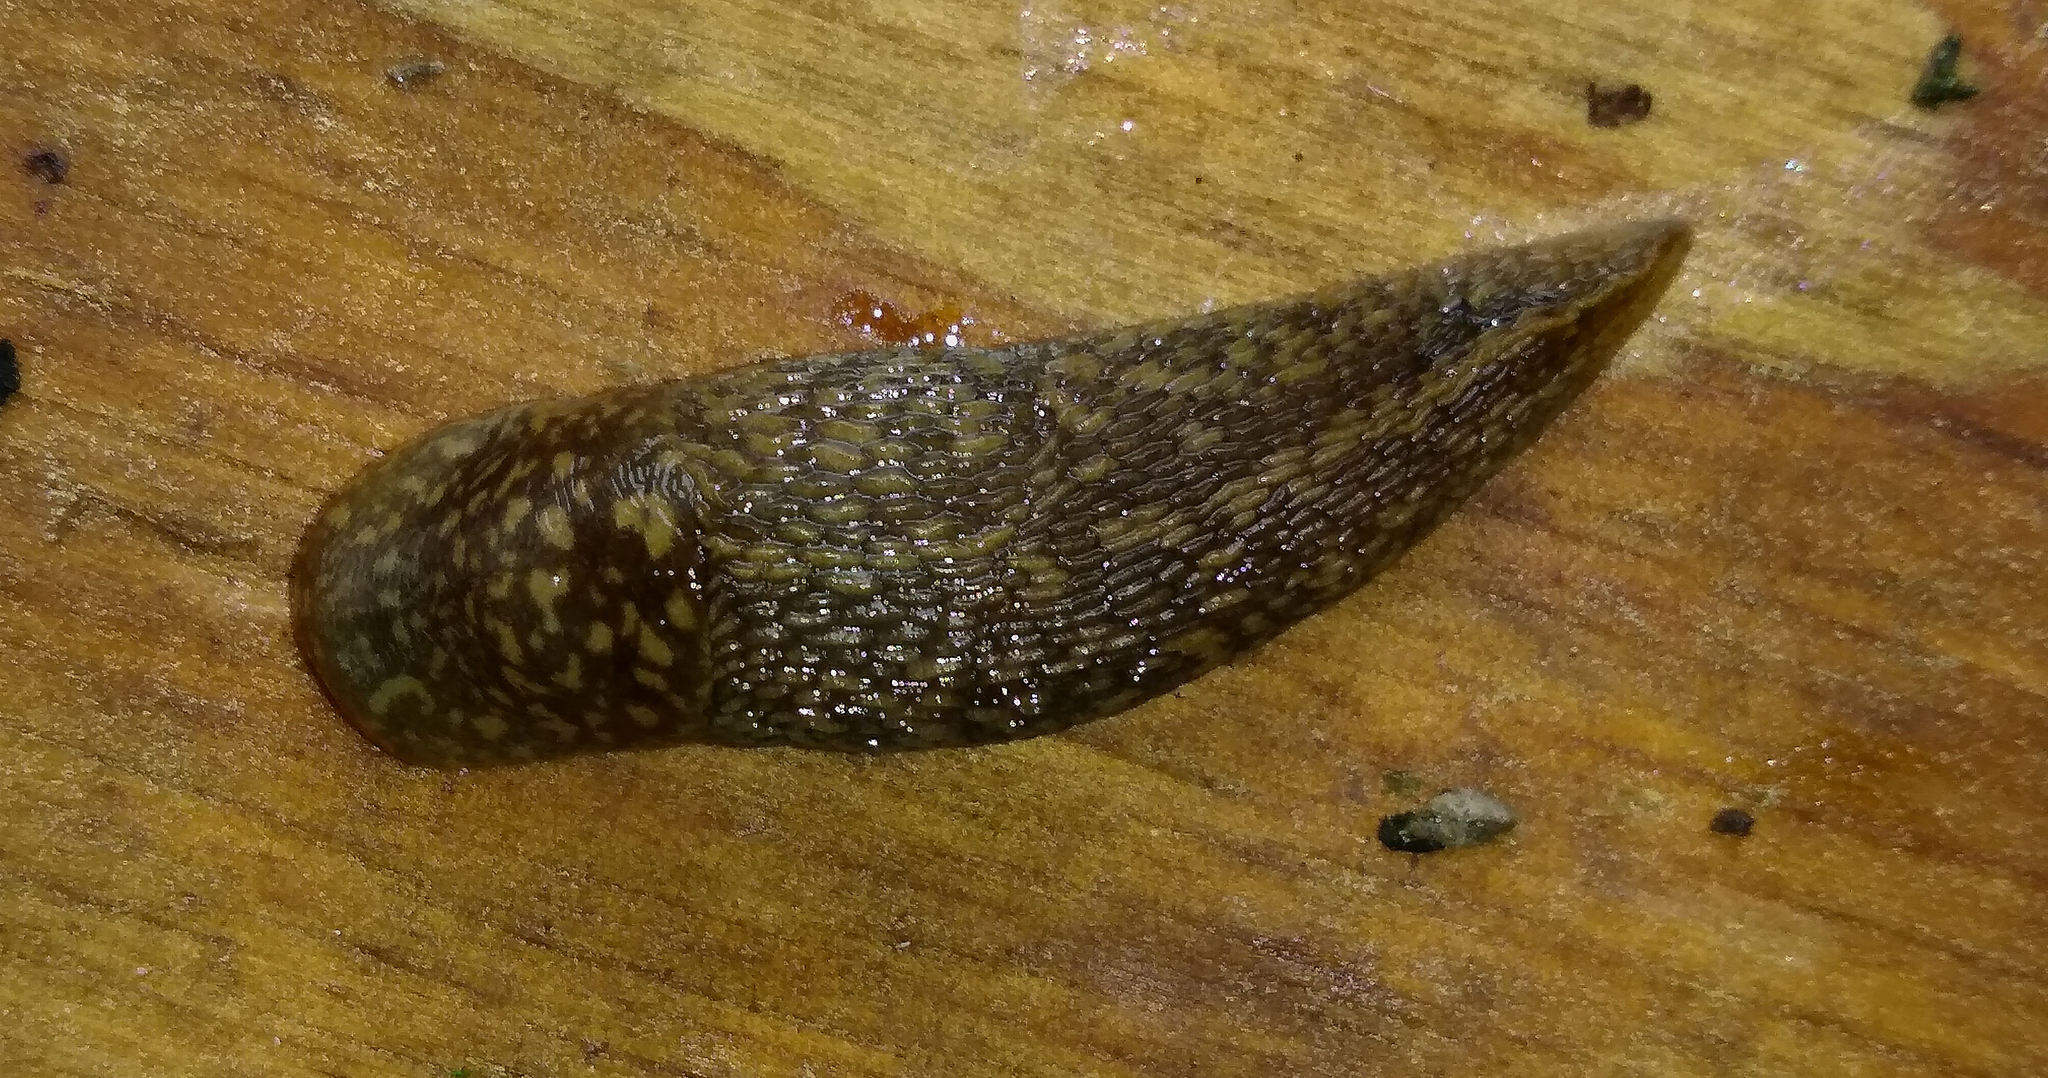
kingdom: Animalia
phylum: Mollusca
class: Gastropoda
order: Stylommatophora
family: Limacidae
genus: Limacus
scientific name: Limacus flavus
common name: Yellow gardenslug
